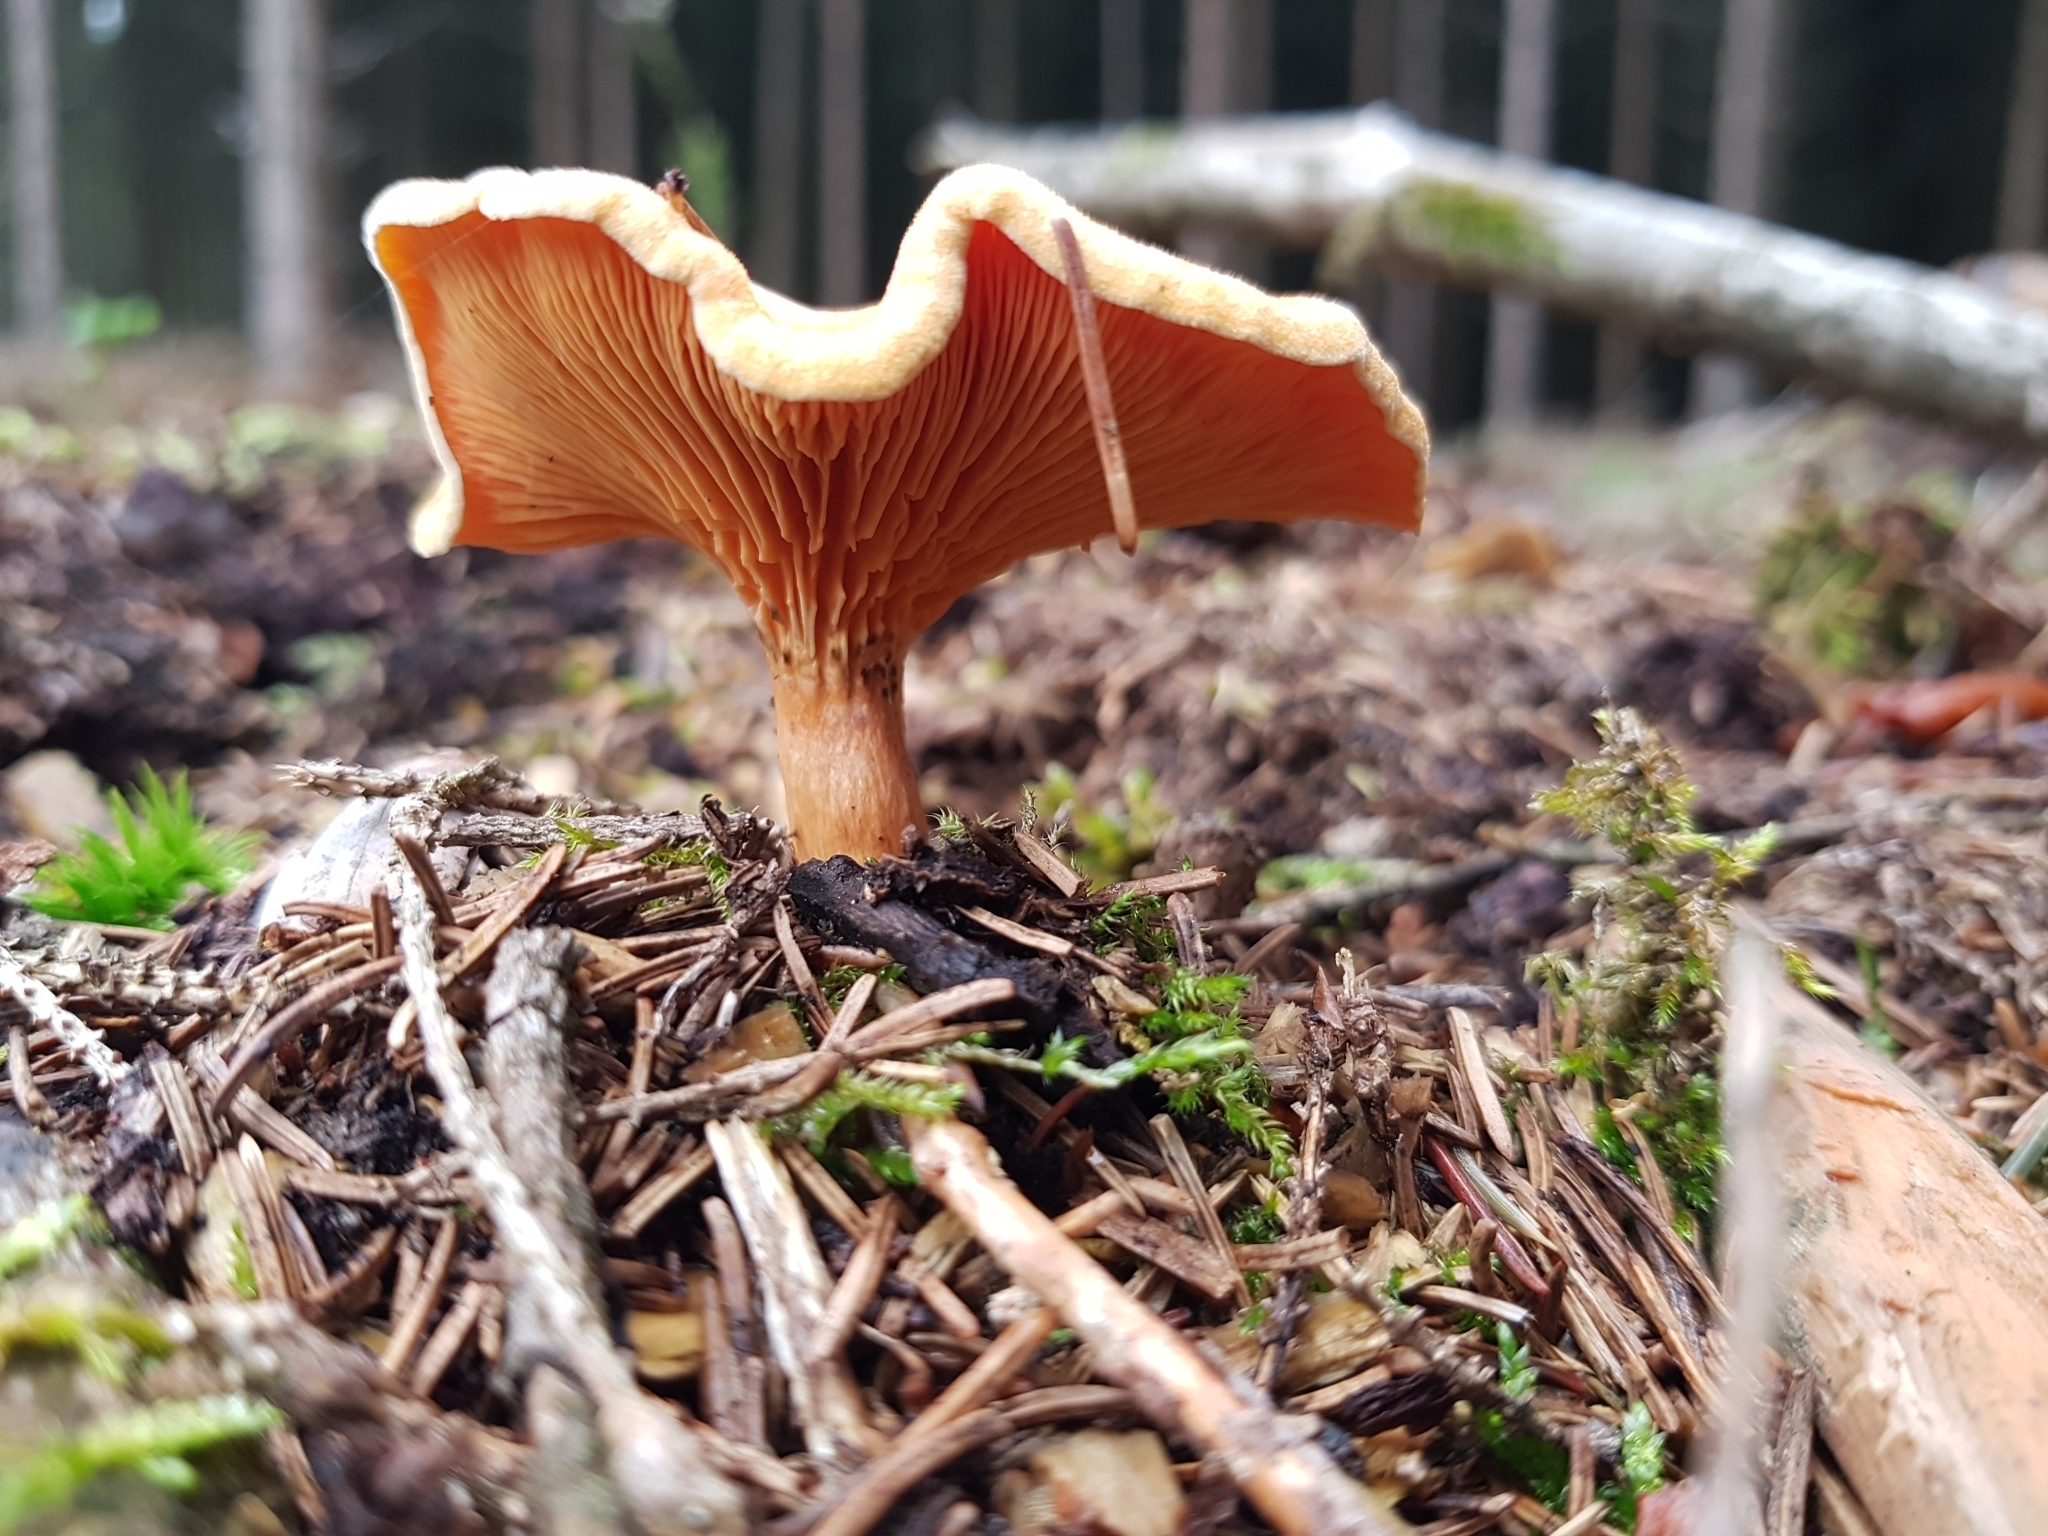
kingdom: Fungi
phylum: Basidiomycota
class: Agaricomycetes
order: Boletales
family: Hygrophoropsidaceae
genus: Hygrophoropsis
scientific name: Hygrophoropsis aurantiaca
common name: False chanterelle
